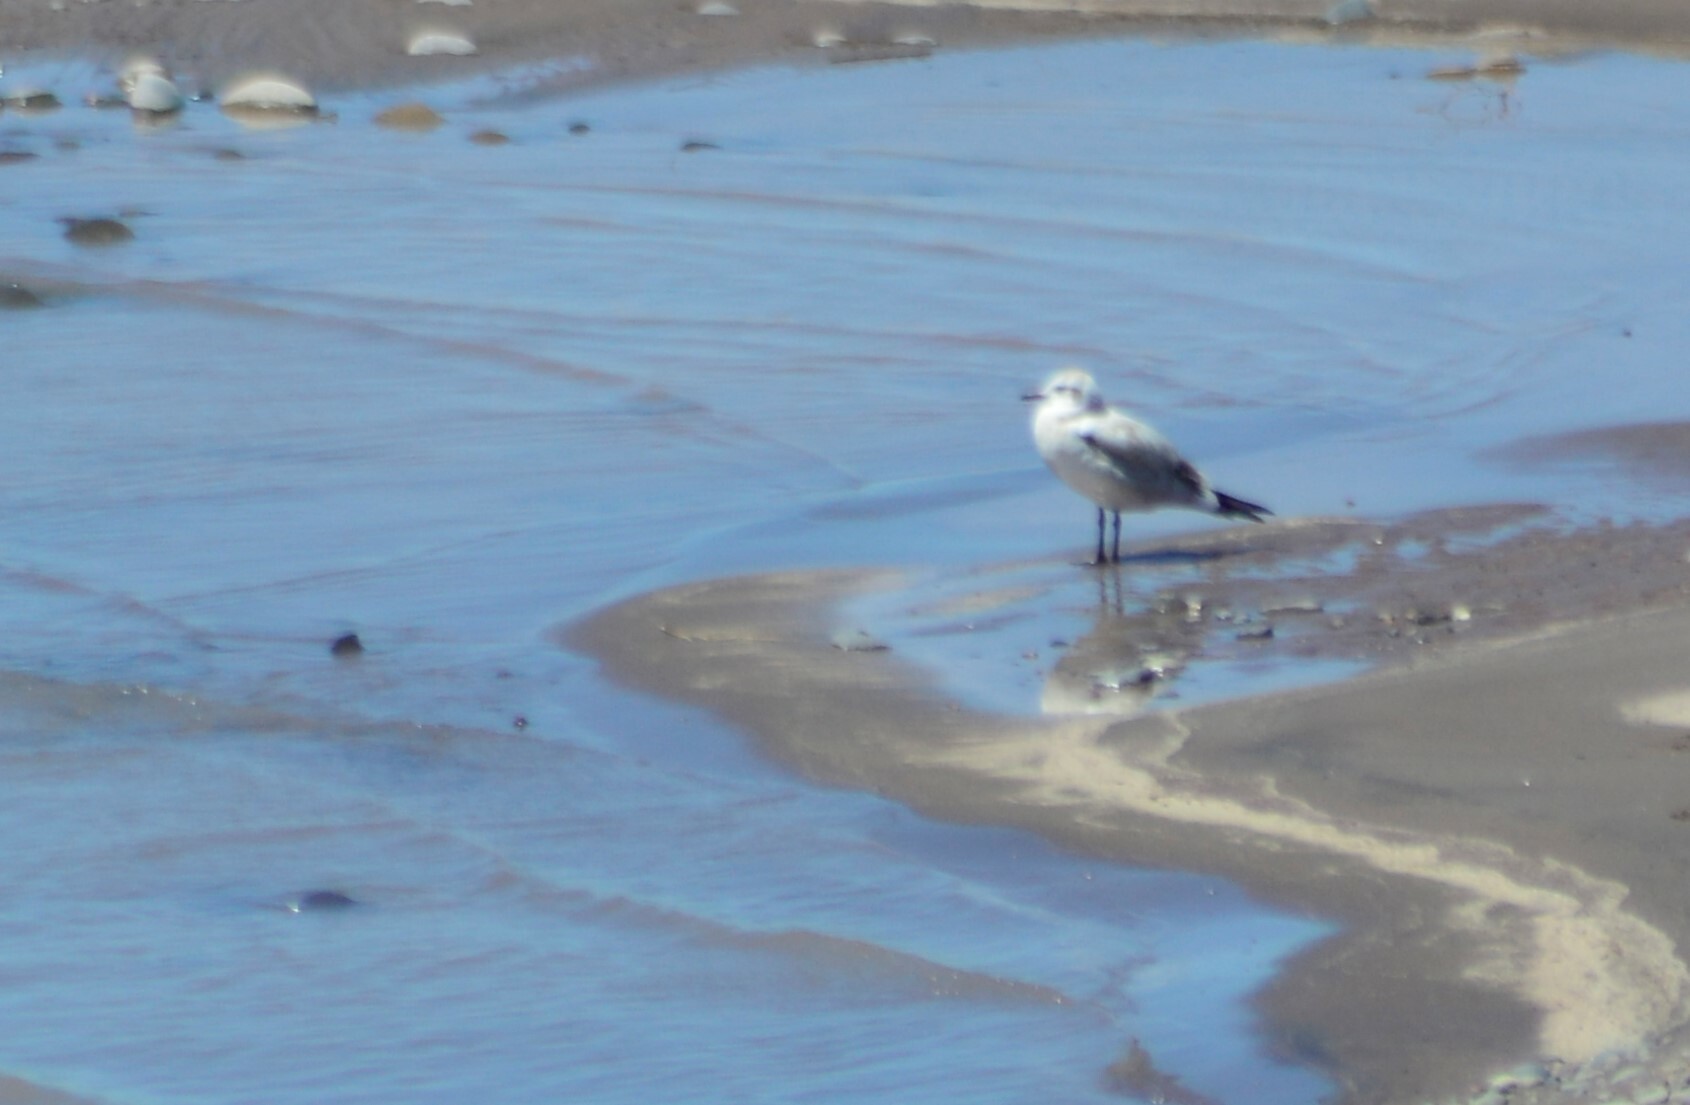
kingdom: Animalia
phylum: Chordata
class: Aves
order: Charadriiformes
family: Laridae
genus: Chroicocephalus
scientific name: Chroicocephalus cirrocephalus
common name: Grey-headed gull
